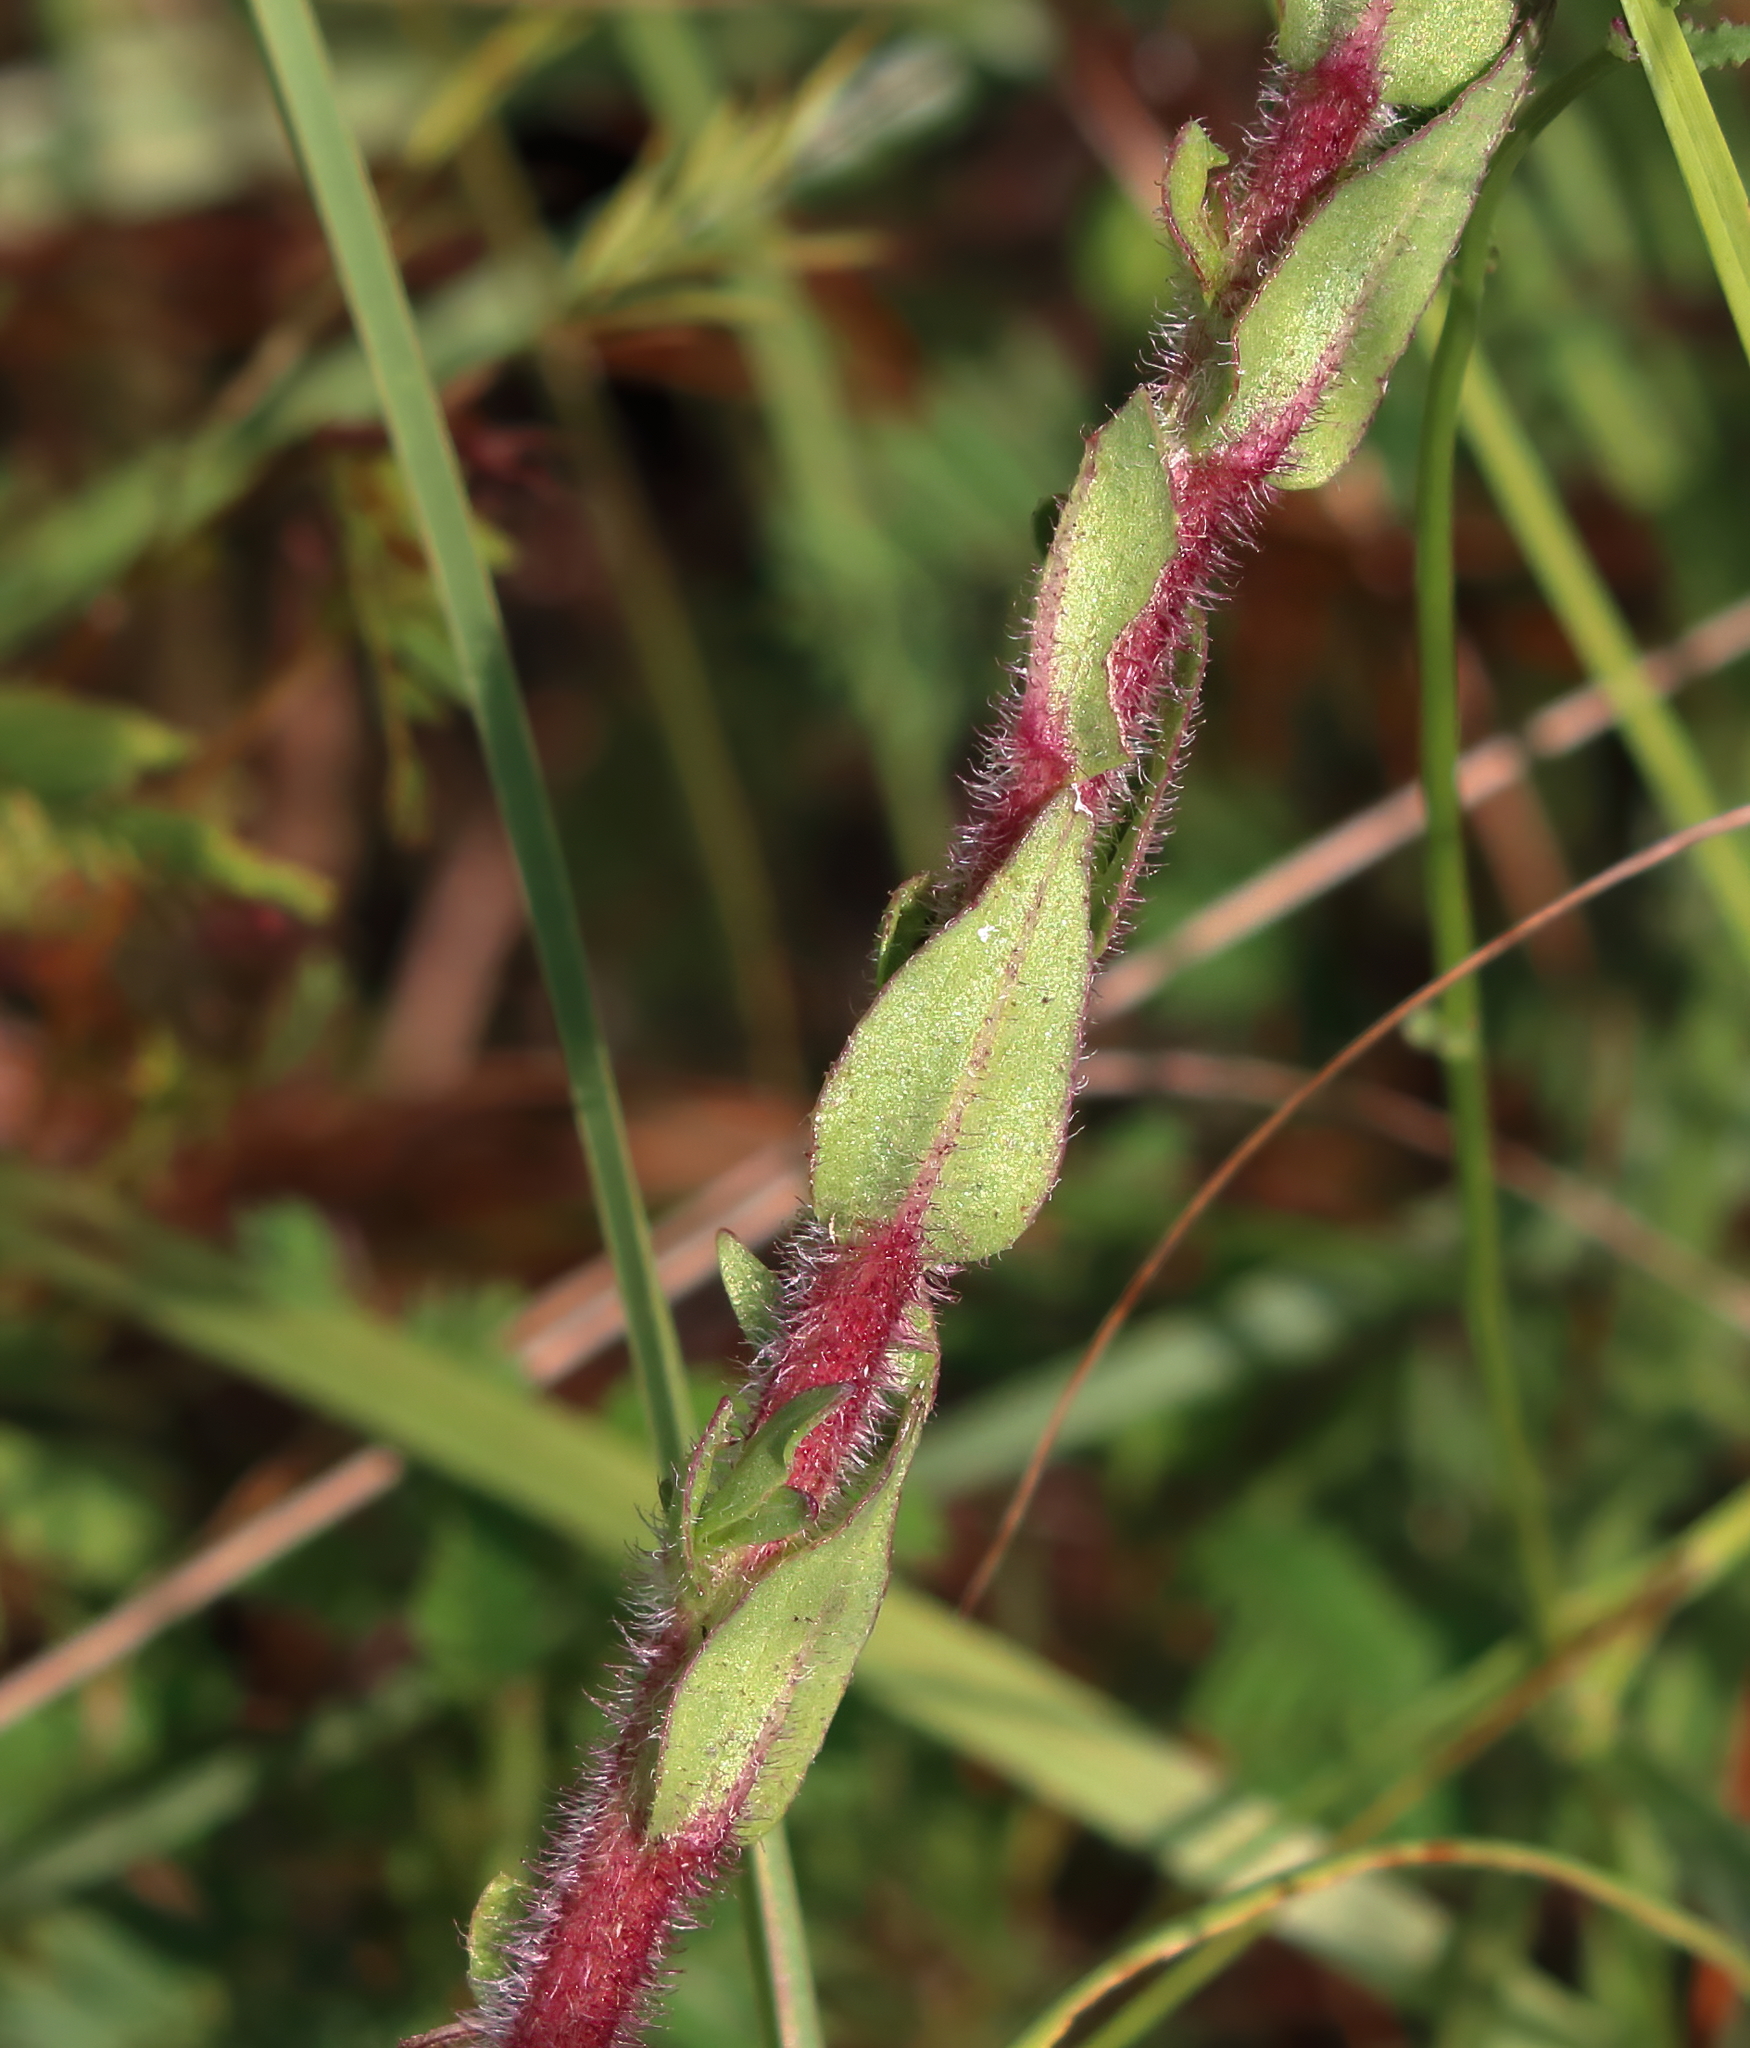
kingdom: Plantae
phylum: Tracheophyta
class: Magnoliopsida
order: Asterales
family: Asteraceae
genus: Carphephorus
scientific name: Carphephorus paniculatus
